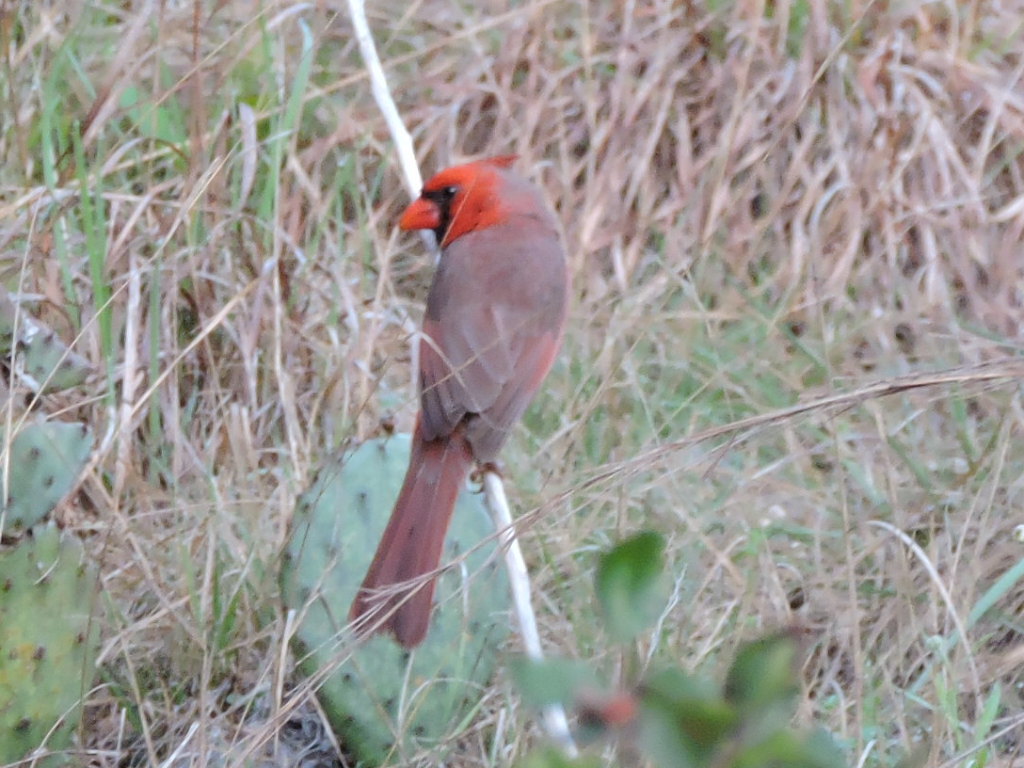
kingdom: Animalia
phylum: Chordata
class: Aves
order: Passeriformes
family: Cardinalidae
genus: Cardinalis
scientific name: Cardinalis cardinalis
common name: Northern cardinal
